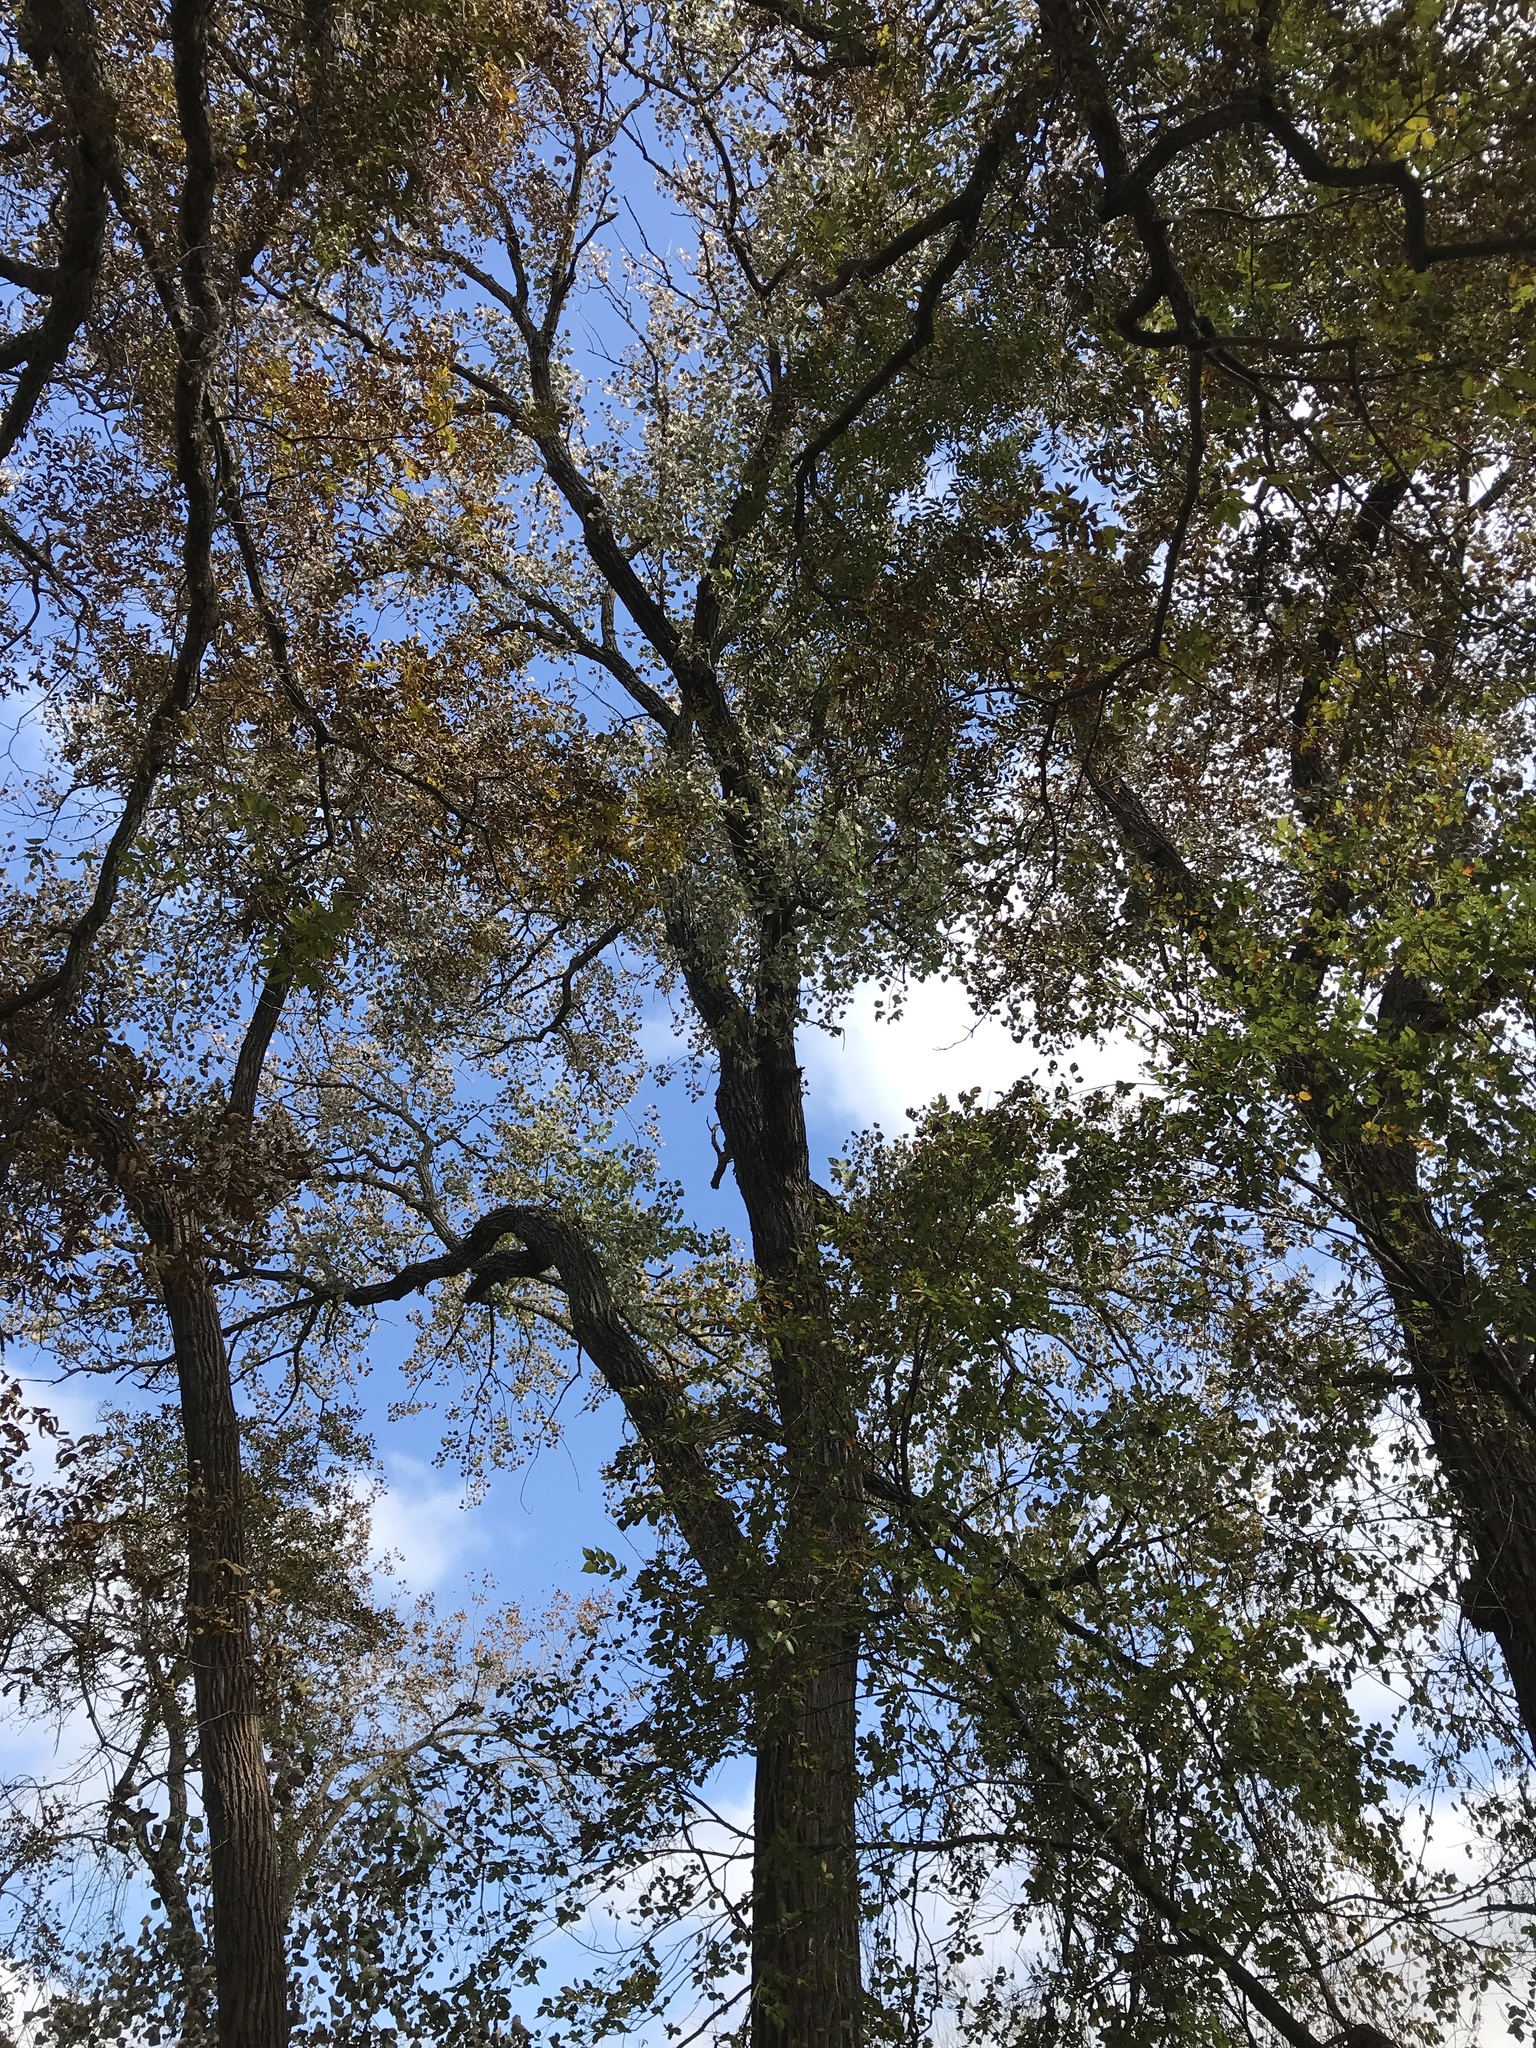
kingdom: Plantae
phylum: Tracheophyta
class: Magnoliopsida
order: Malpighiales
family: Salicaceae
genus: Populus
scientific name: Populus deltoides
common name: Eastern cottonwood
